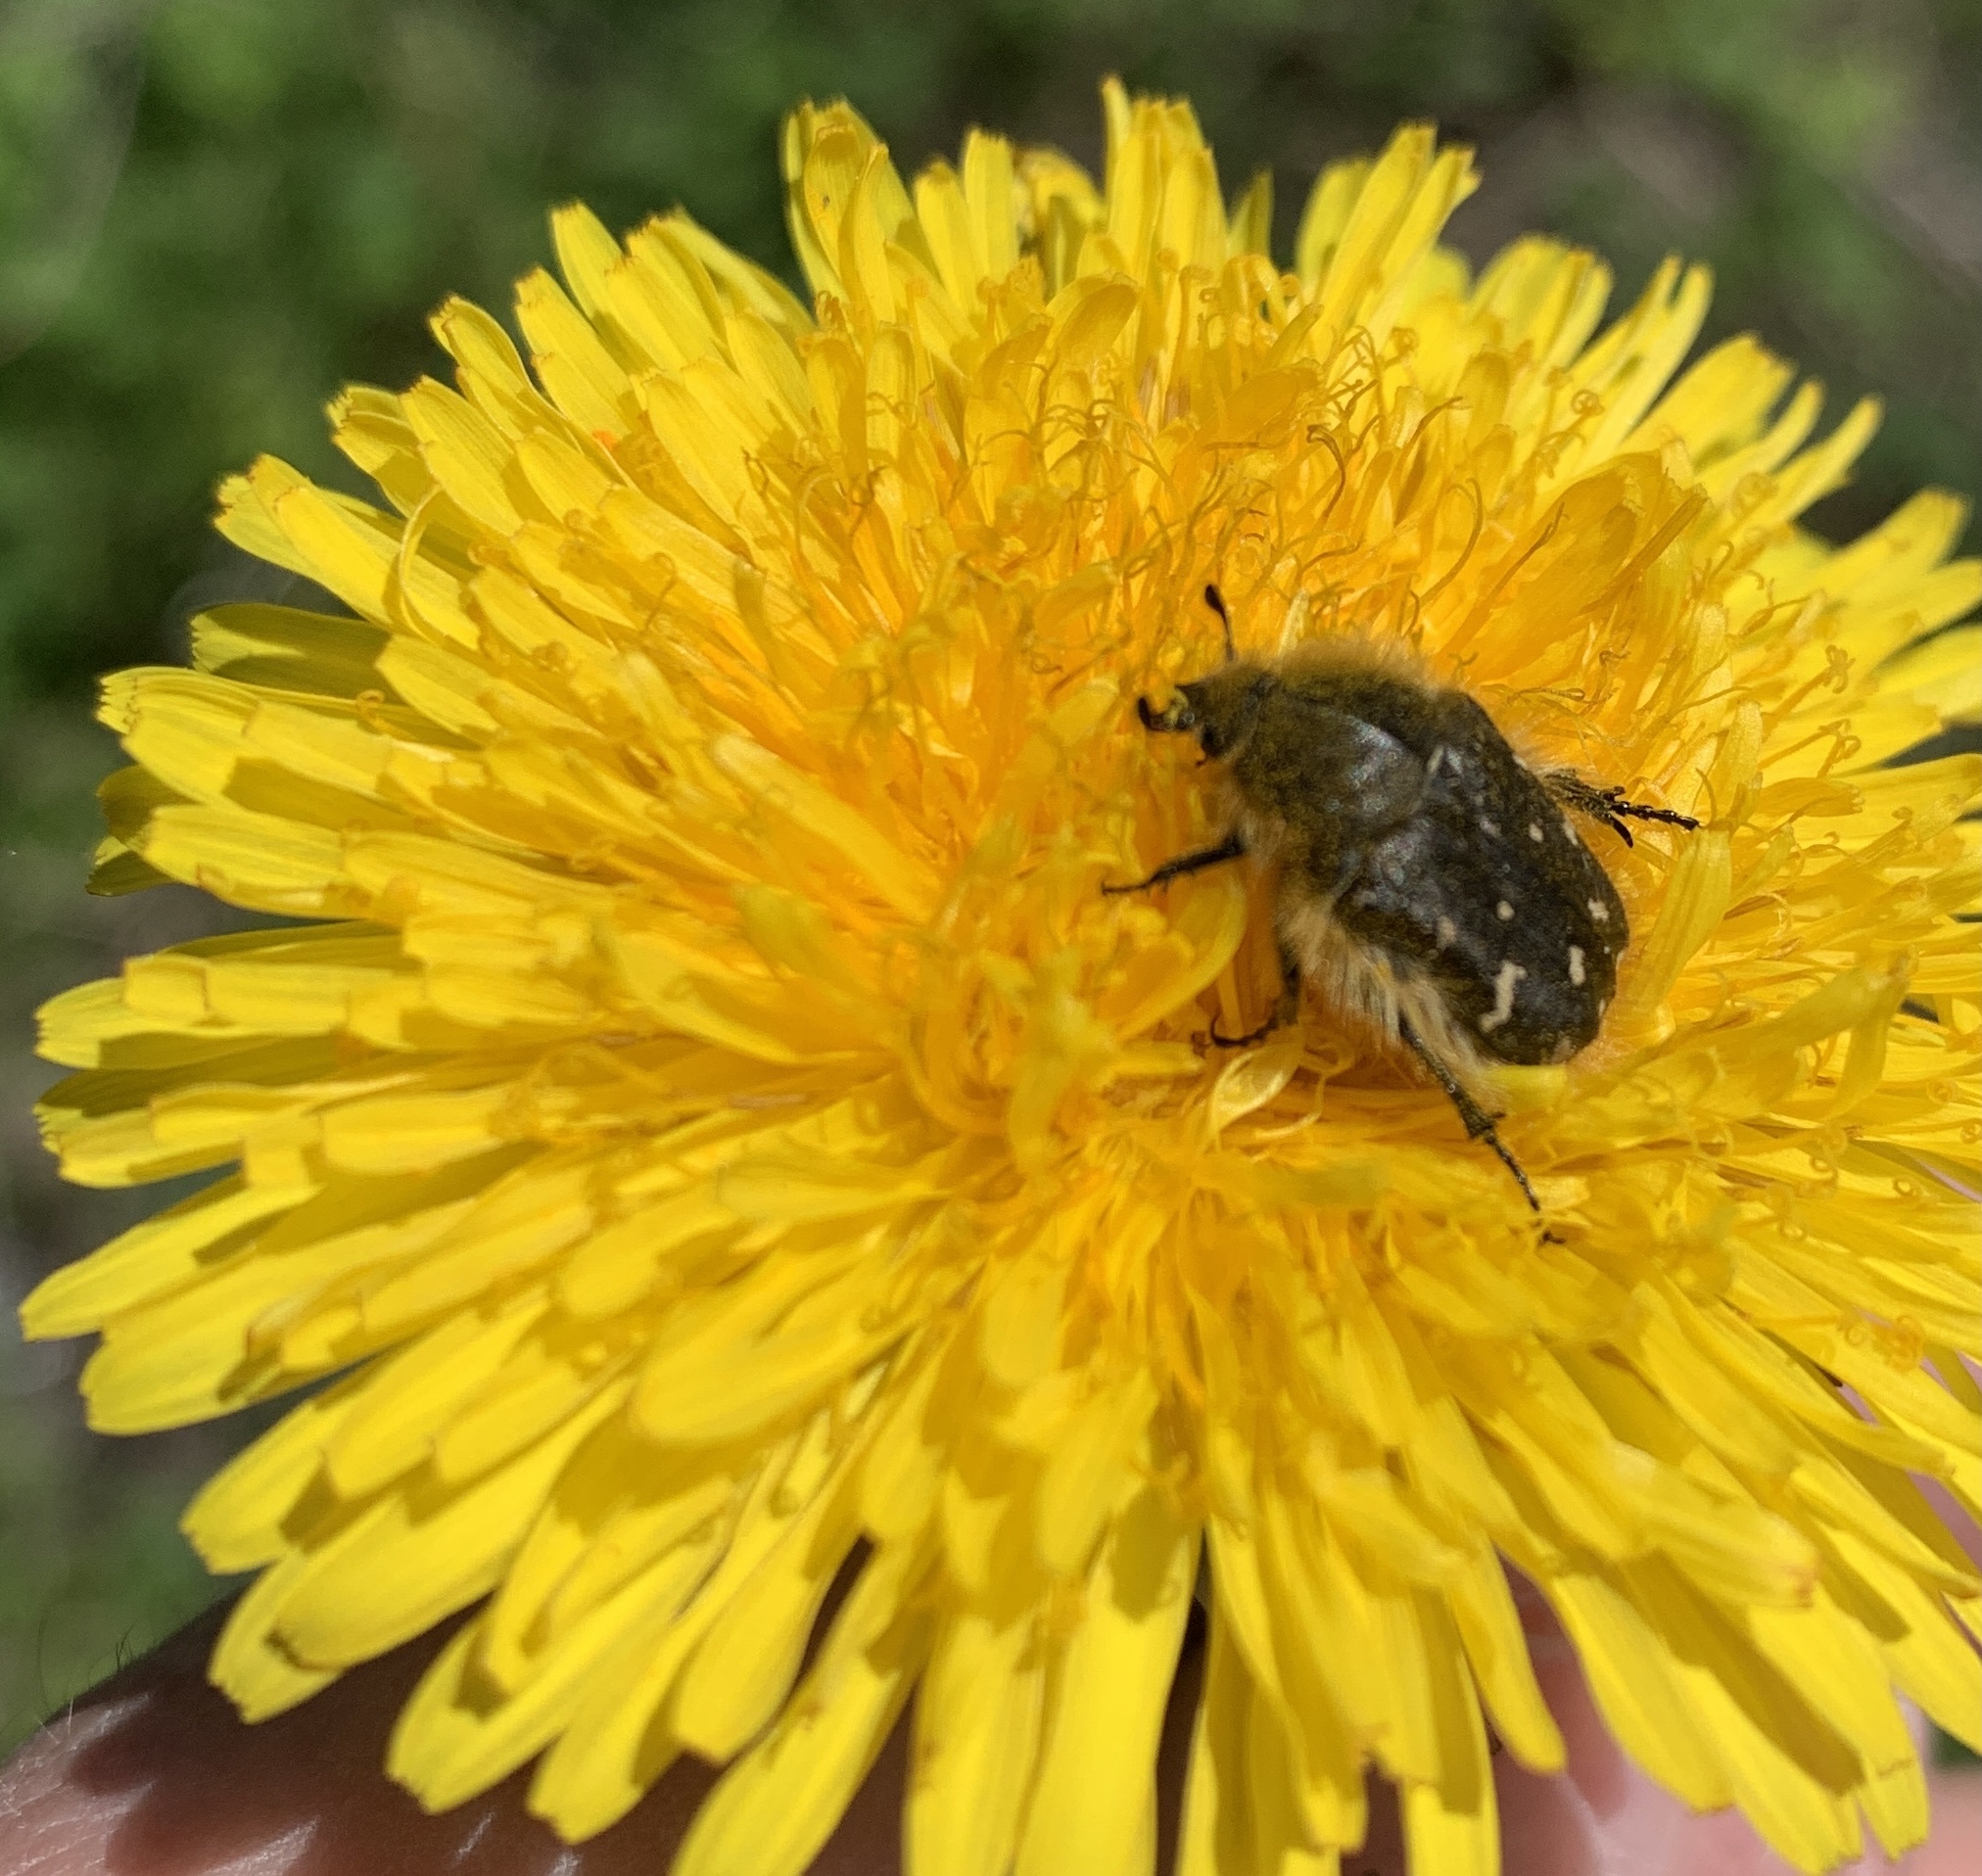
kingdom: Animalia
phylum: Arthropoda
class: Insecta
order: Coleoptera
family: Scarabaeidae
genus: Tropinota
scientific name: Tropinota hirta
